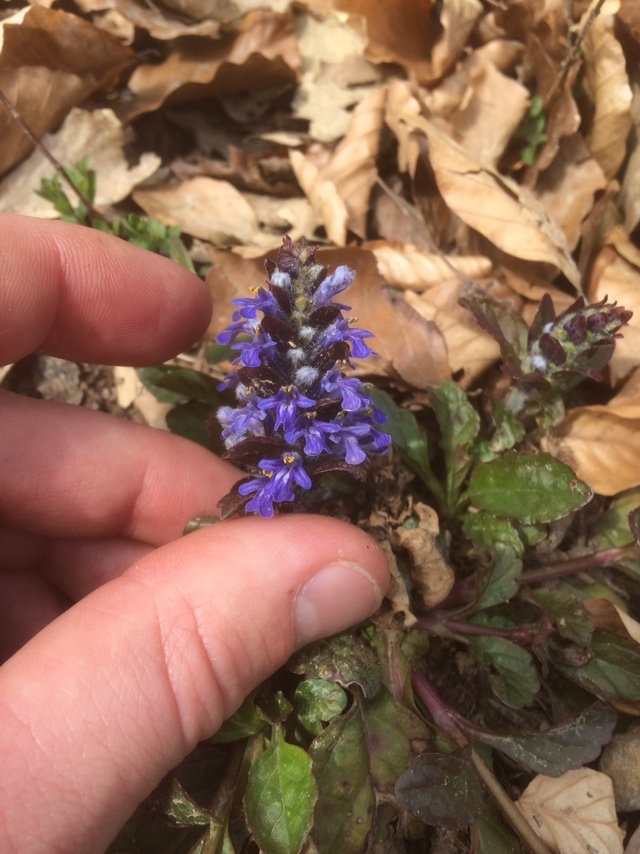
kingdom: Plantae
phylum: Tracheophyta
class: Magnoliopsida
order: Lamiales
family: Lamiaceae
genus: Ajuga
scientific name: Ajuga reptans
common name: Bugle
